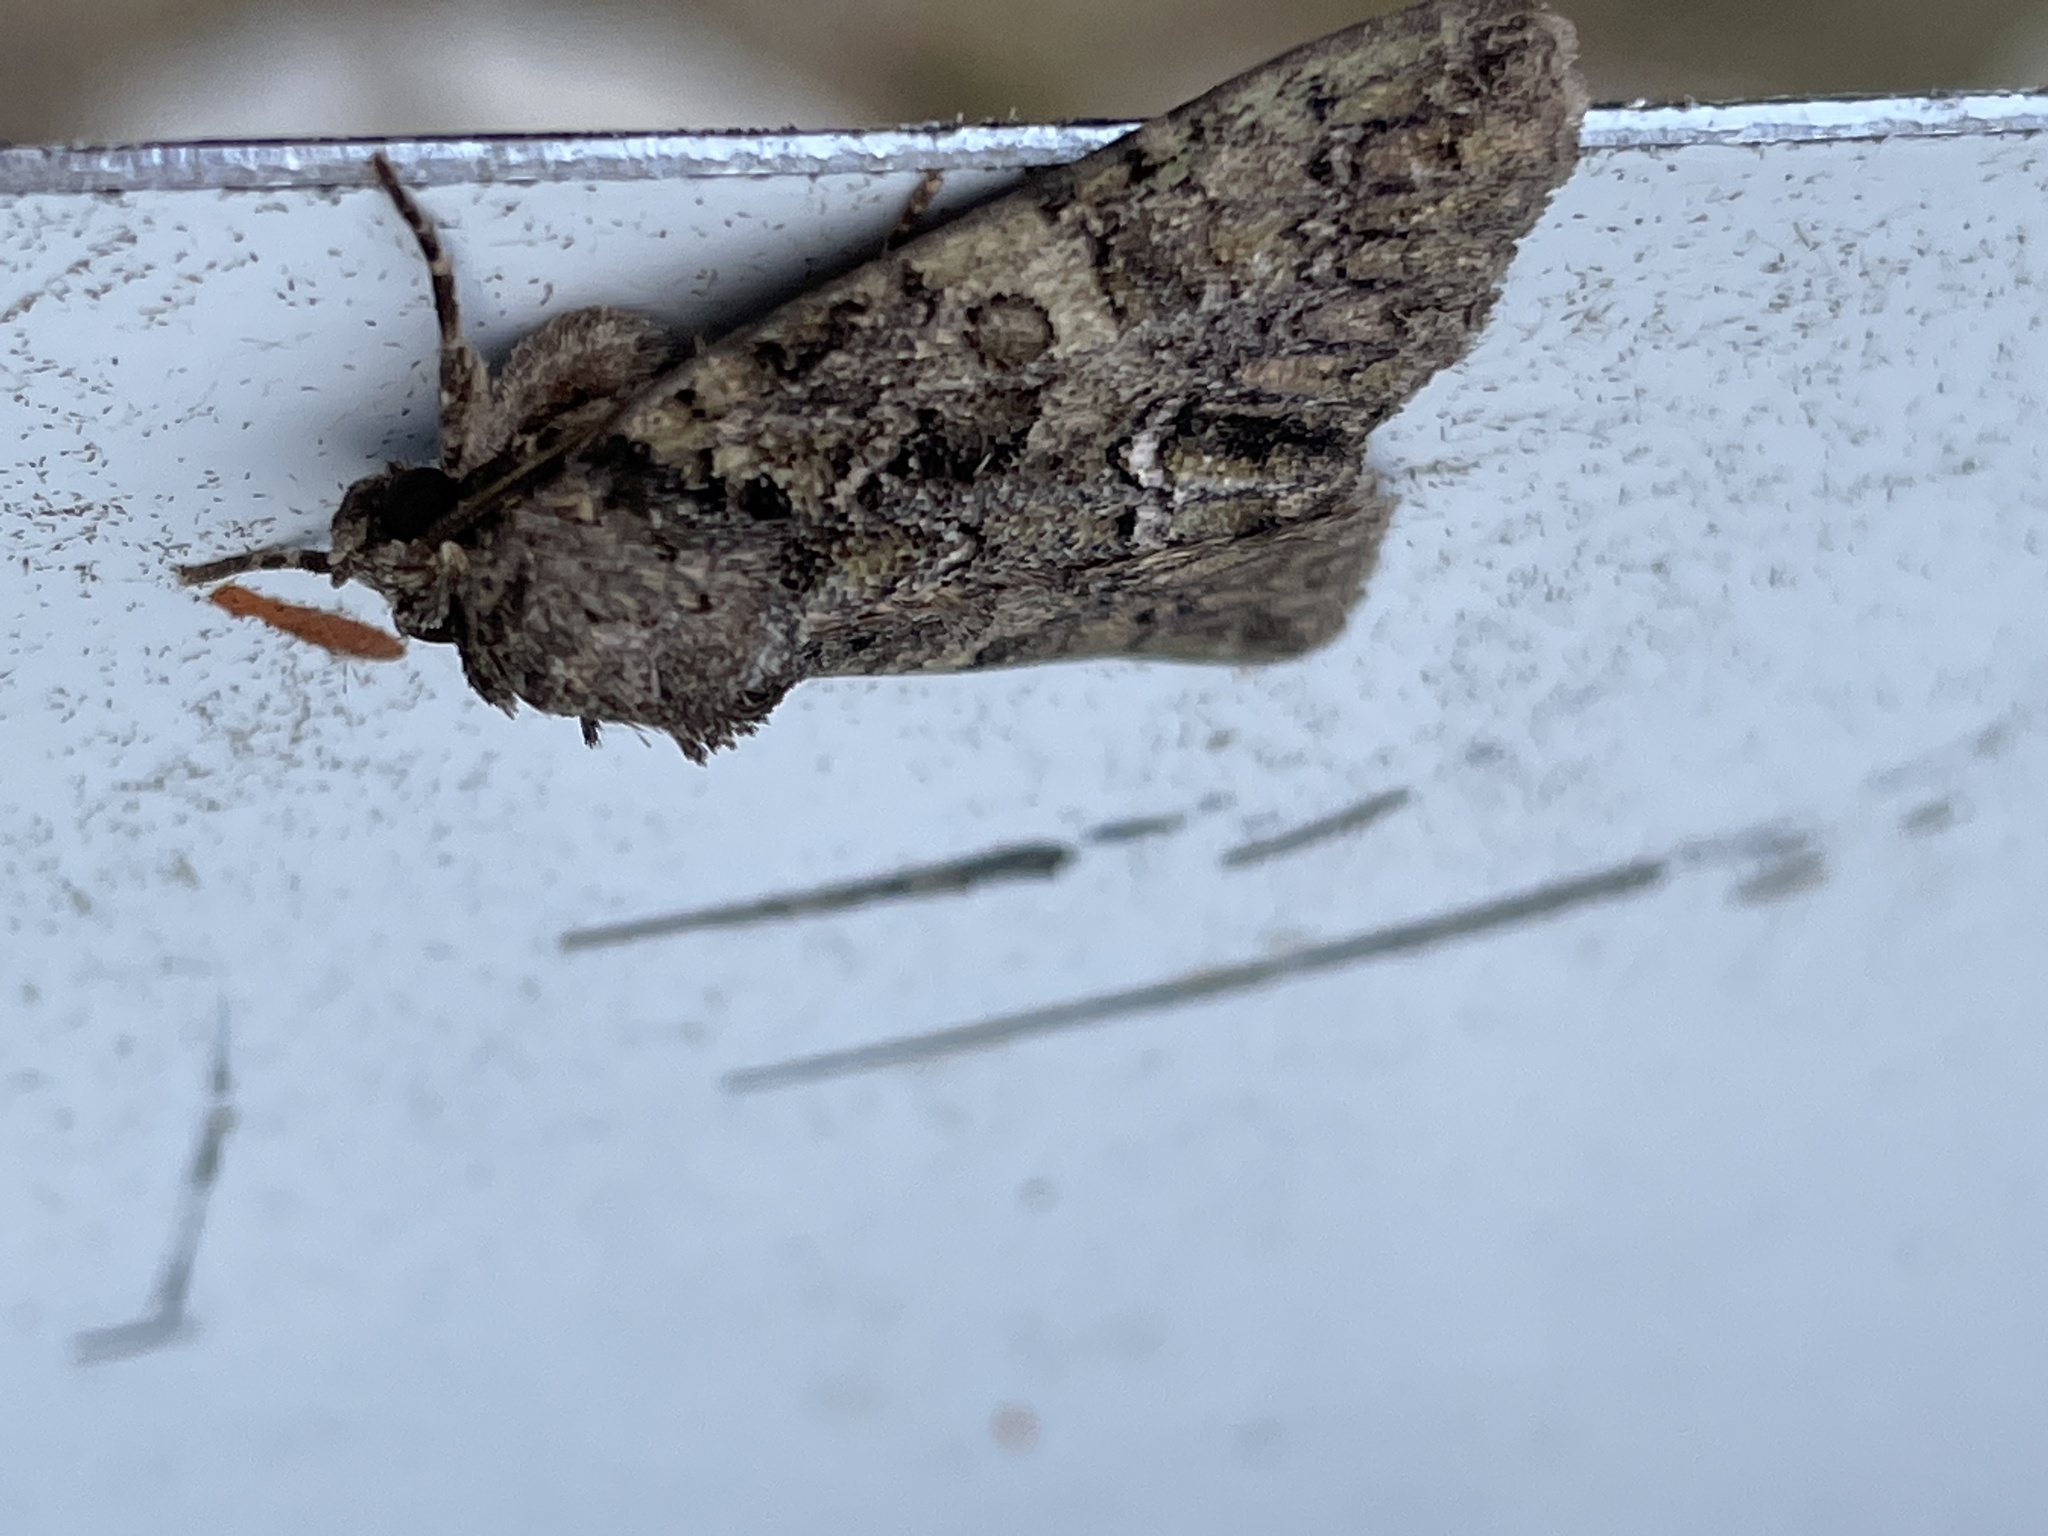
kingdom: Animalia
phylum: Arthropoda
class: Insecta
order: Lepidoptera
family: Noctuidae
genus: Polyphaenis
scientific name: Polyphaenis sericata
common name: Guernsey underwing
